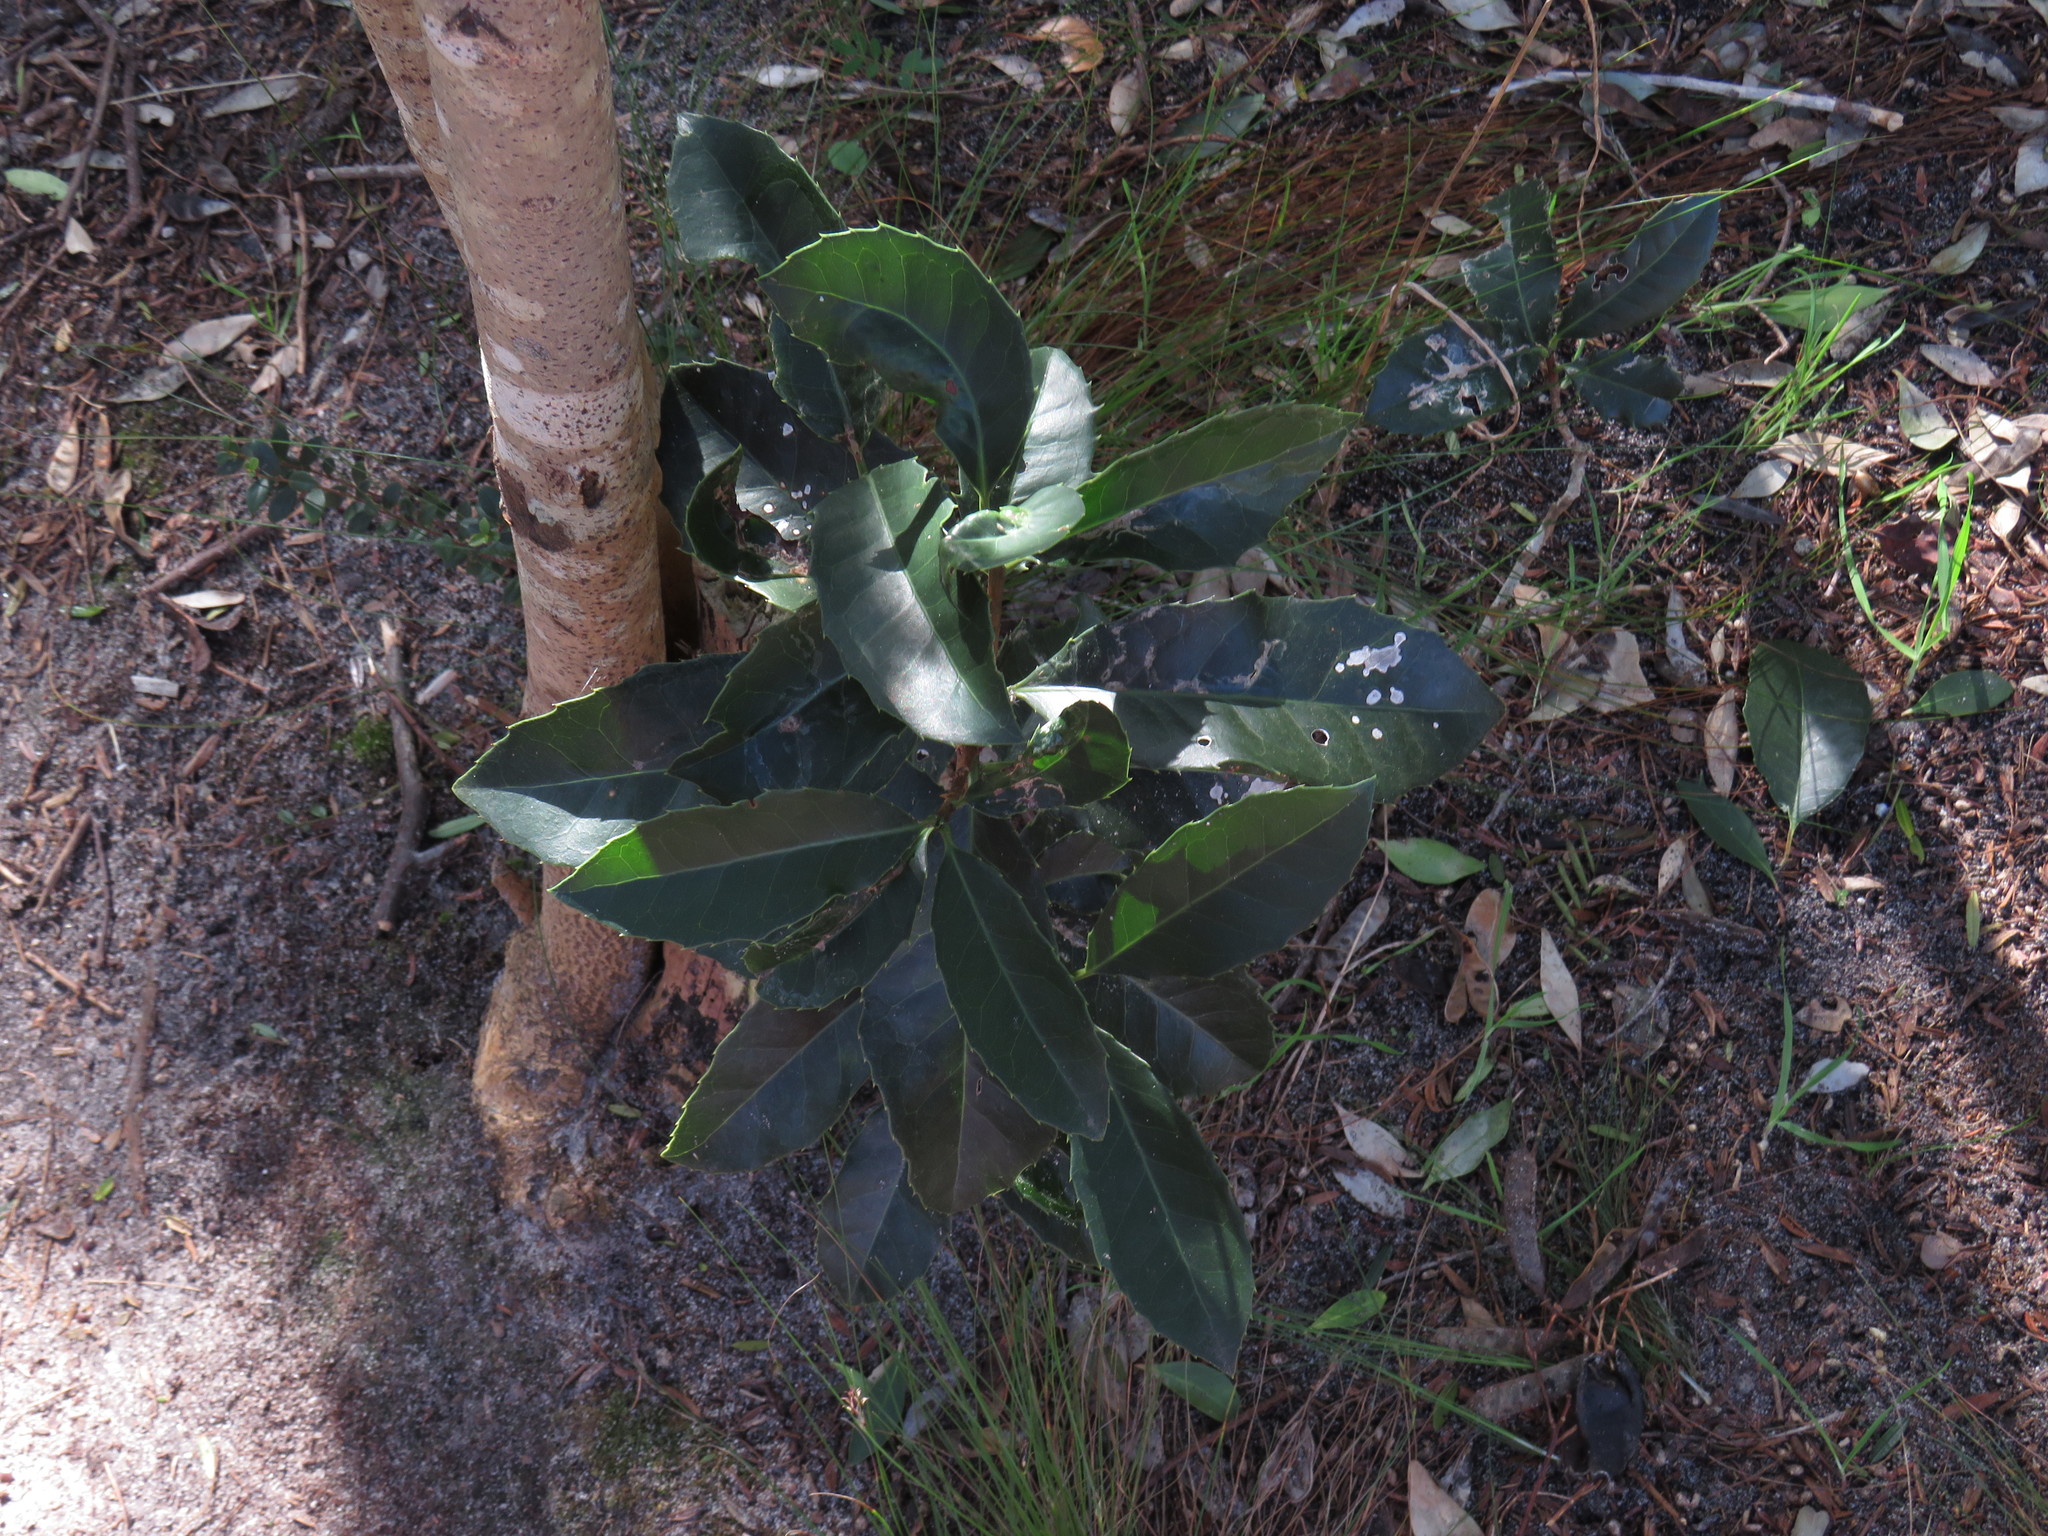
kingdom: Plantae
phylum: Tracheophyta
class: Magnoliopsida
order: Celastrales
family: Celastraceae
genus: Elaeodendron
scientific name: Elaeodendron croceum
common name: Saffron
